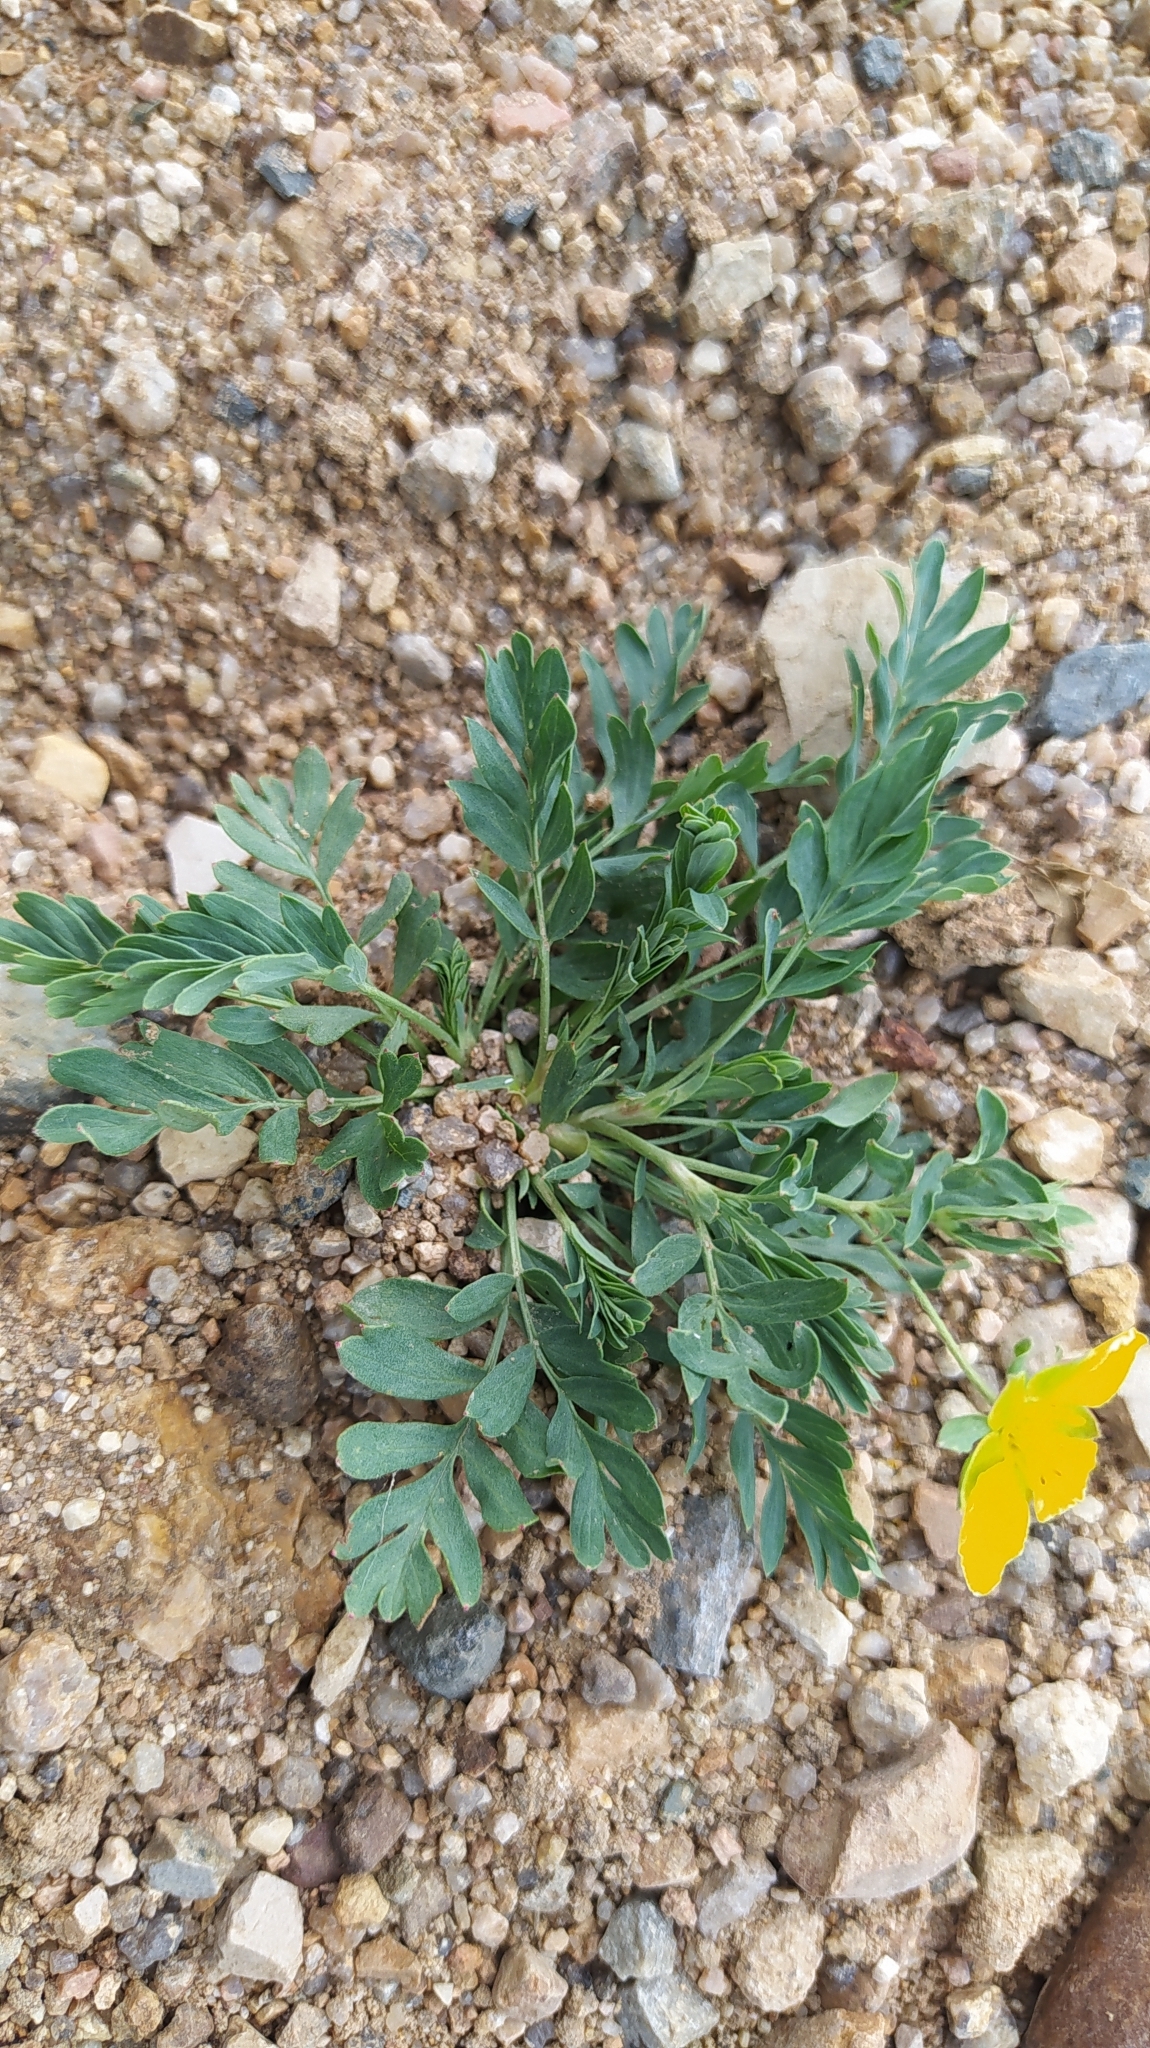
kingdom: Plantae
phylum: Tracheophyta
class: Magnoliopsida
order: Rosales
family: Rosaceae
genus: Sibbaldianthe
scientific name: Sibbaldianthe bifurca
